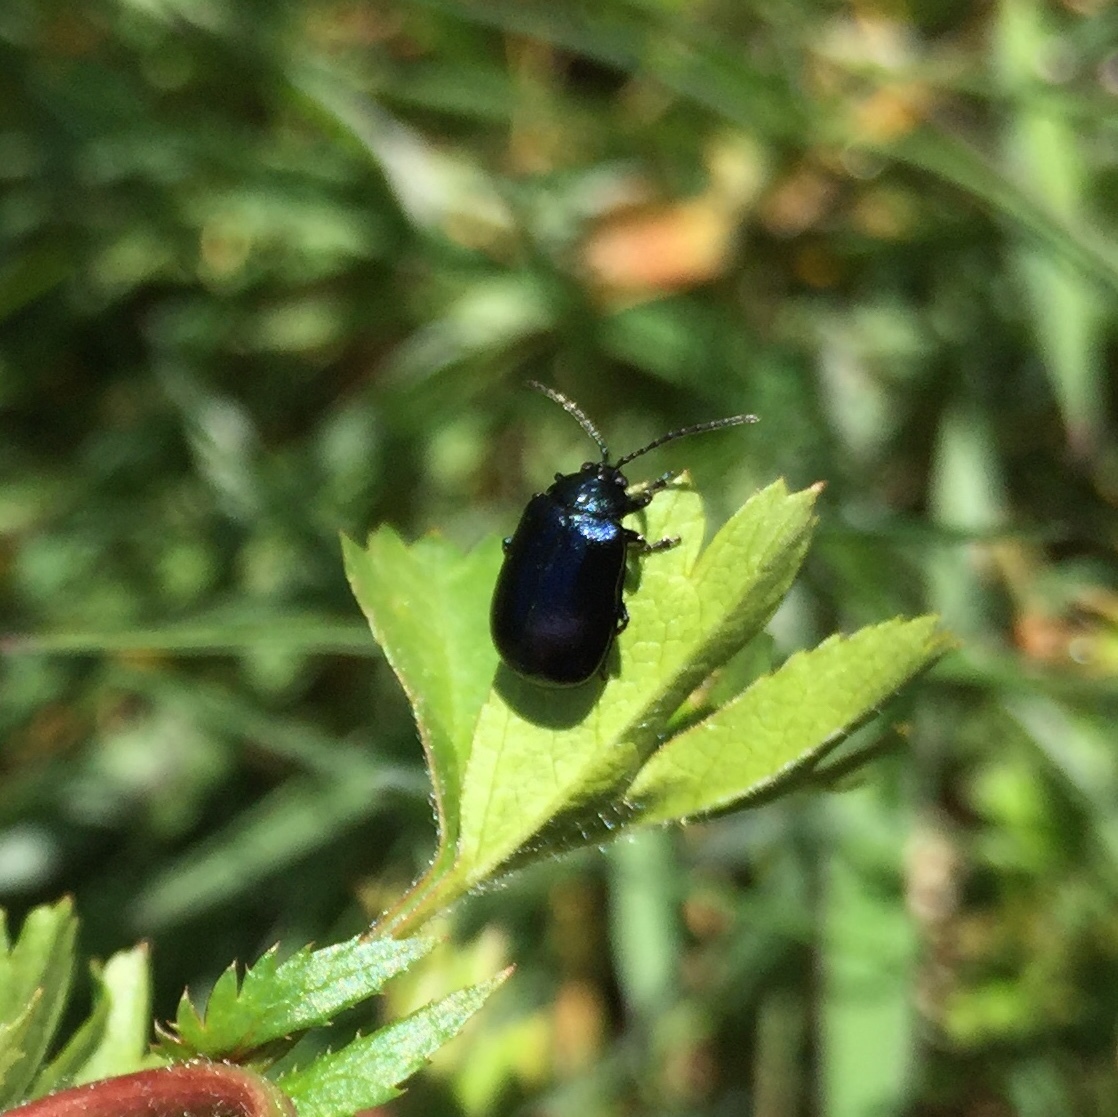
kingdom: Animalia
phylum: Arthropoda
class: Insecta
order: Coleoptera
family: Chrysomelidae
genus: Agelastica
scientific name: Agelastica alni
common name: Alder leaf beetle
